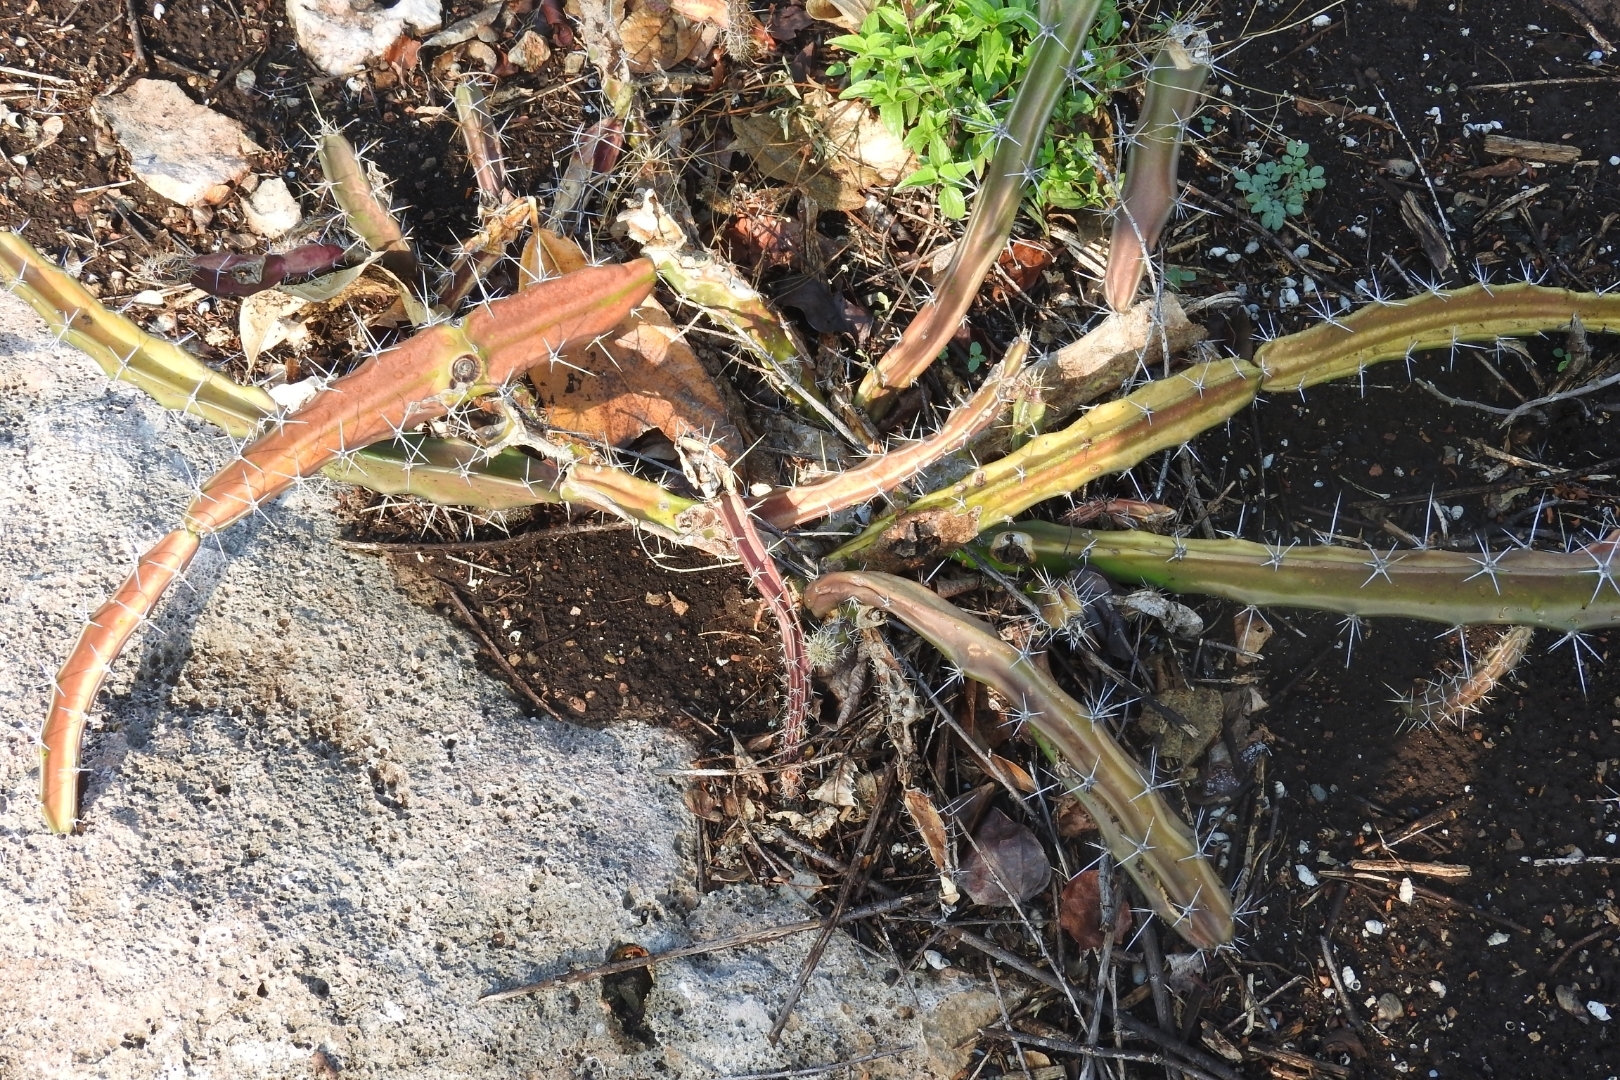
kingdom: Plantae
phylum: Tracheophyta
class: Magnoliopsida
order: Caryophyllales
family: Cactaceae
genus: Acanthocereus
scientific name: Acanthocereus tetragonus
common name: Triangle cactus
